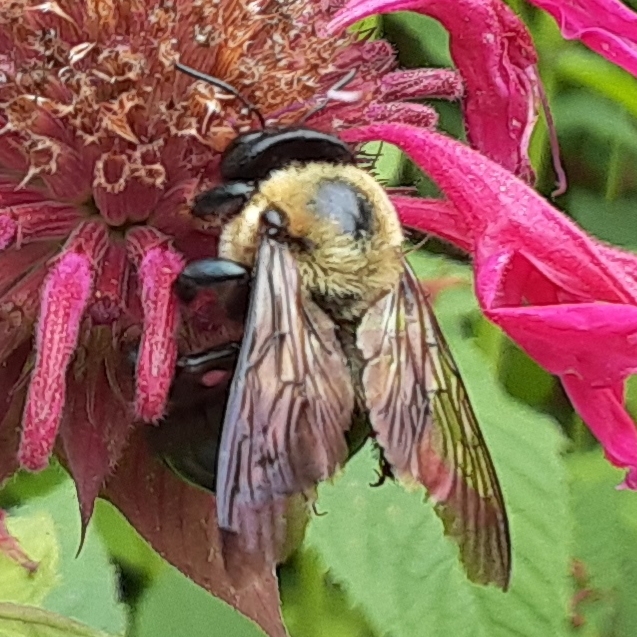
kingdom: Animalia
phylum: Arthropoda
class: Insecta
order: Hymenoptera
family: Apidae
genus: Xylocopa
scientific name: Xylocopa virginica
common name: Carpenter bee
